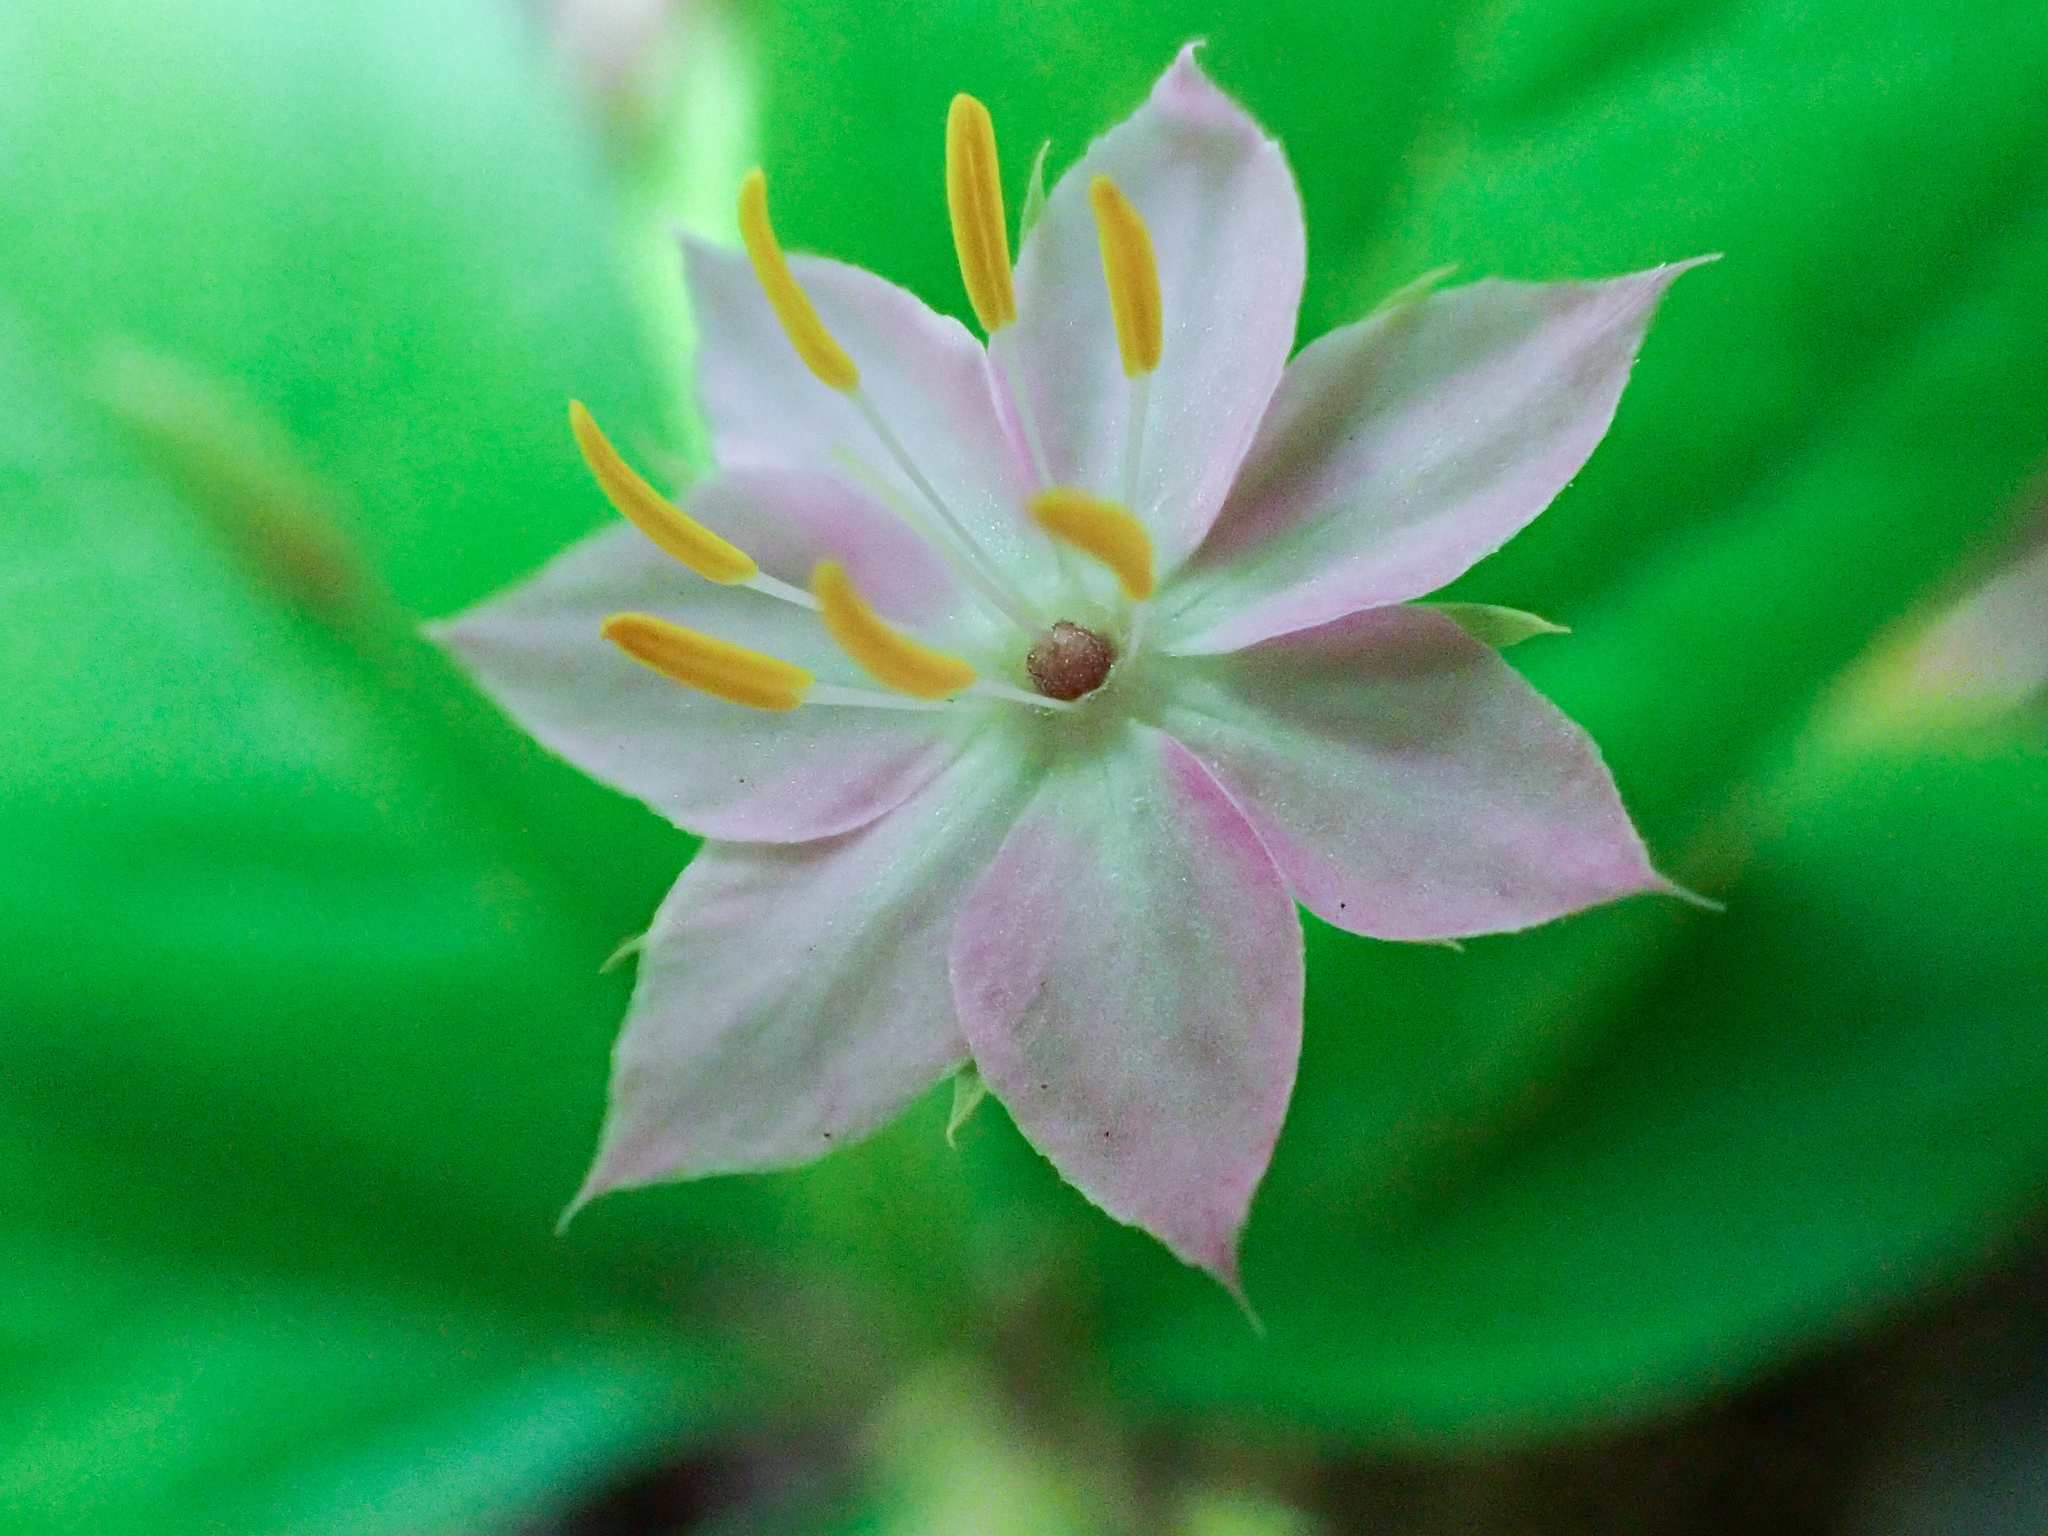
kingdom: Plantae
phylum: Tracheophyta
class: Magnoliopsida
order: Ericales
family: Primulaceae
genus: Lysimachia
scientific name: Lysimachia latifolia
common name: Pacific starflower
